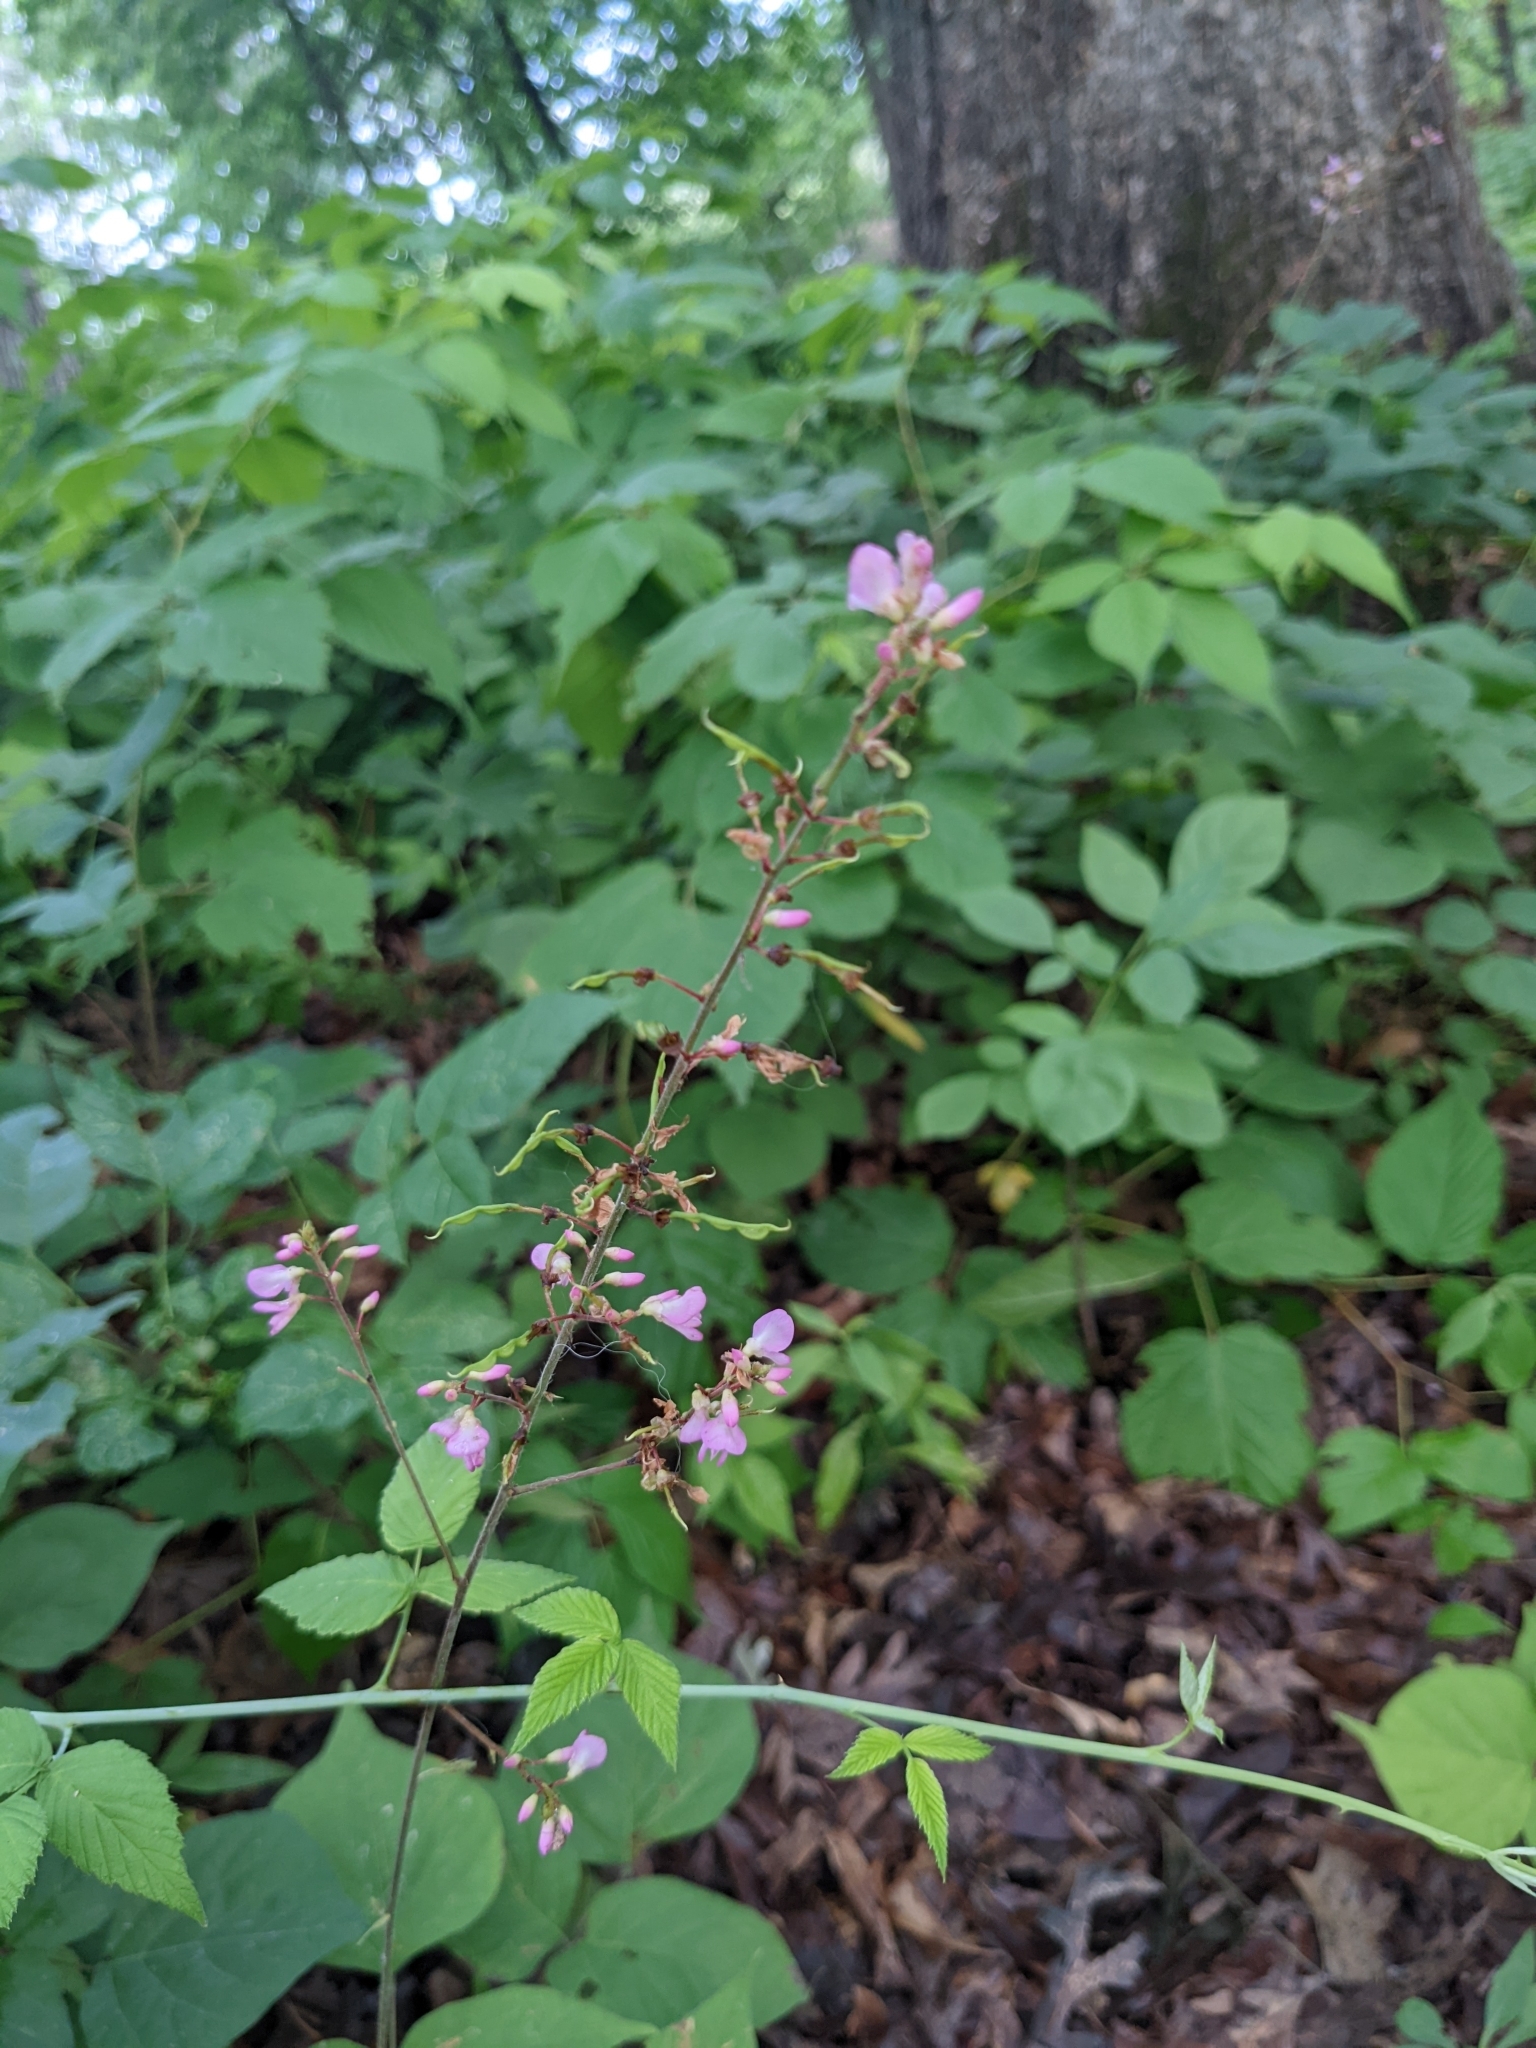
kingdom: Plantae
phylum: Tracheophyta
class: Magnoliopsida
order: Fabales
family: Fabaceae
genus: Hylodesmum
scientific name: Hylodesmum glutinosum
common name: Clustered-leaved tick-trefoil
